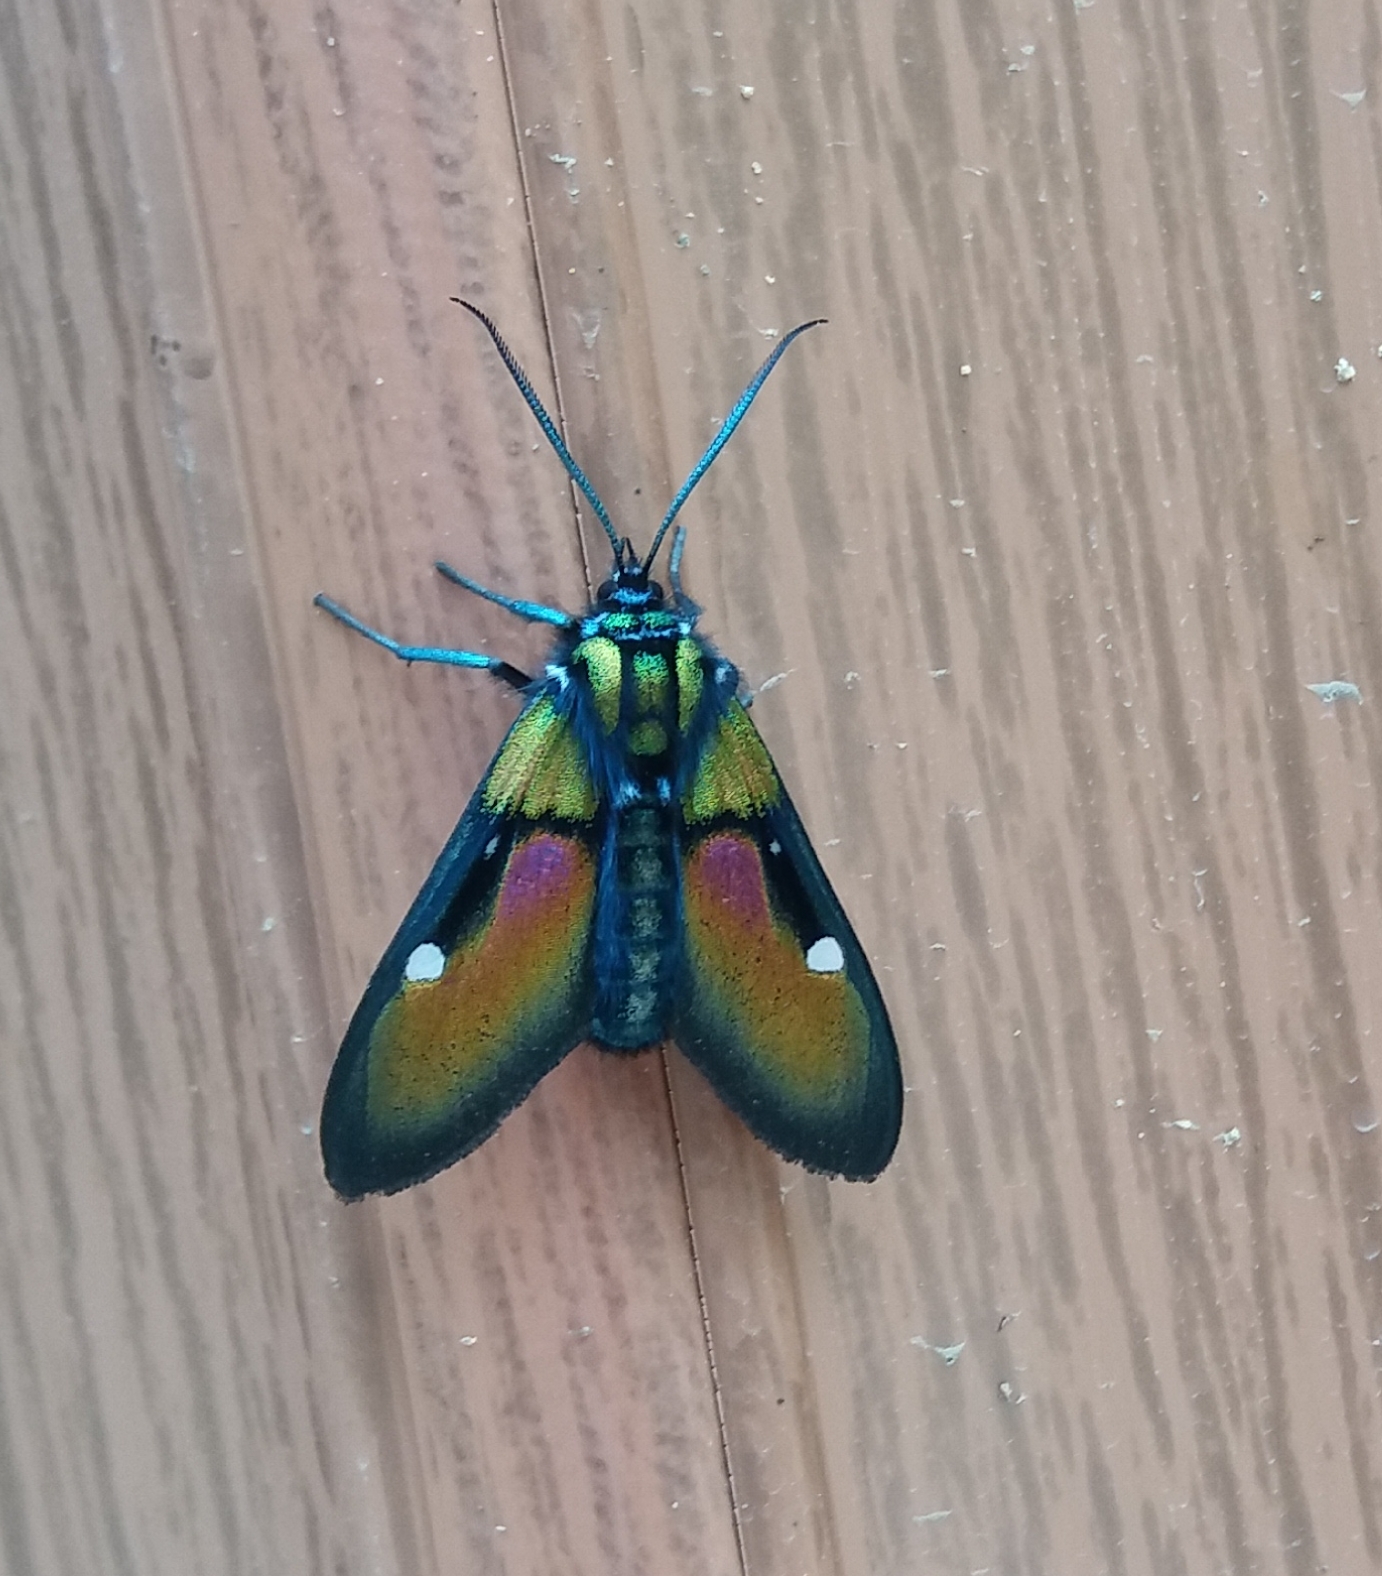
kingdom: Animalia
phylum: Arthropoda
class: Insecta
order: Lepidoptera
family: Erebidae
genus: Chrysocale
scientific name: Chrysocale ignita
